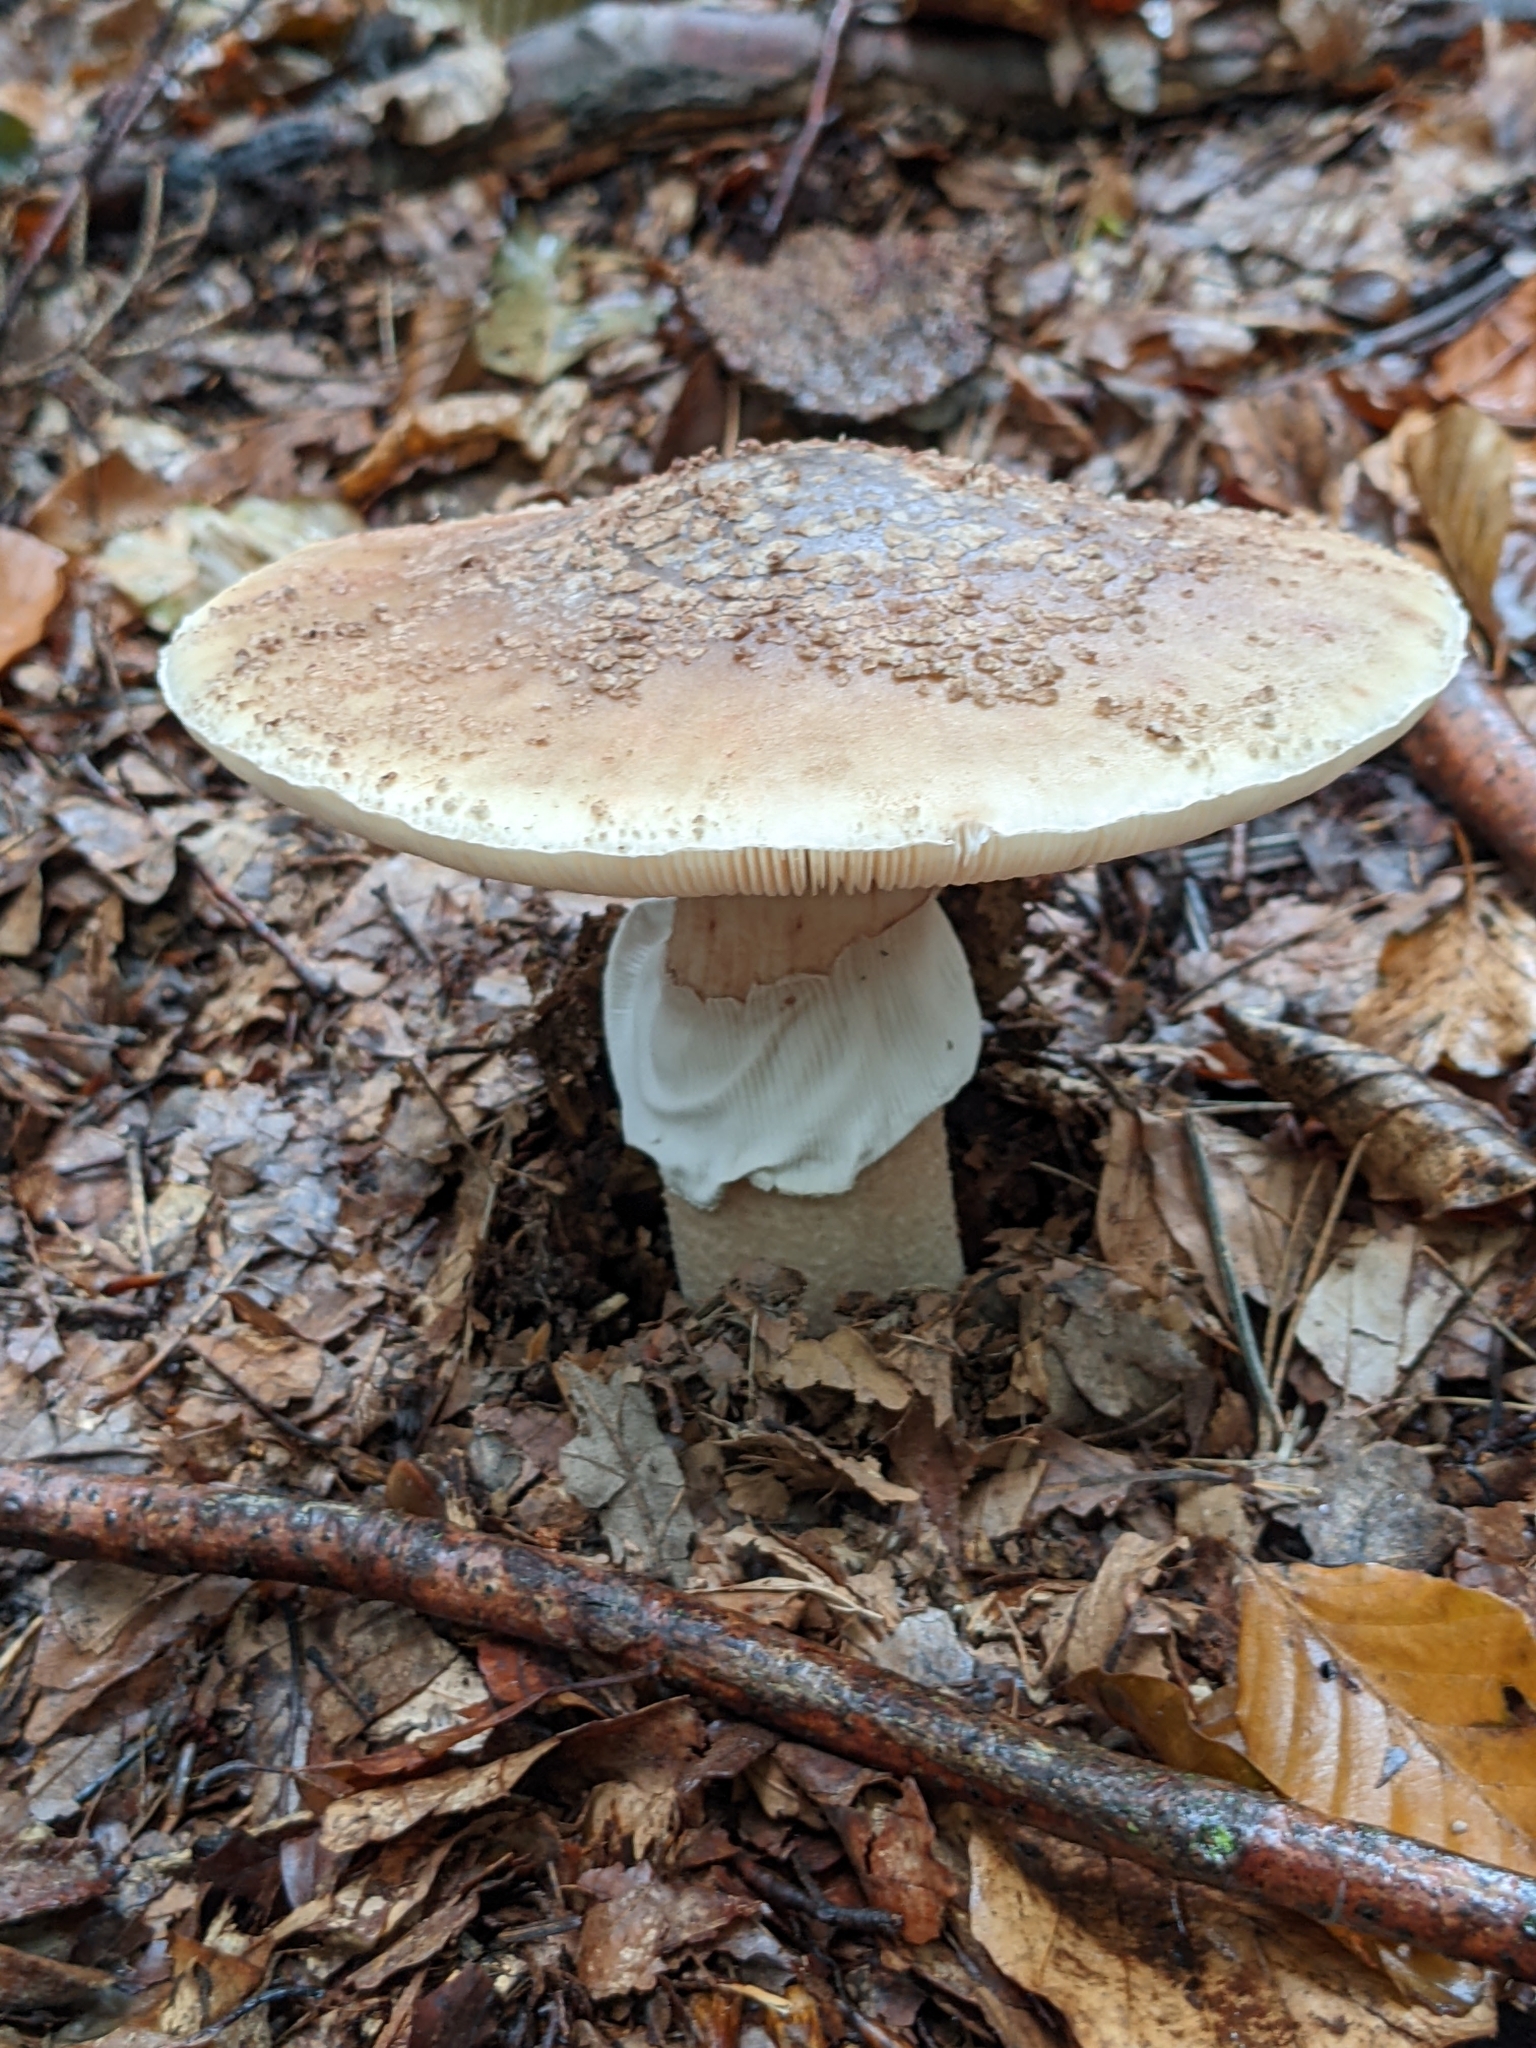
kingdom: Fungi
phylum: Basidiomycota
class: Agaricomycetes
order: Agaricales
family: Amanitaceae
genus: Amanita
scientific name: Amanita rubescens
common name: Blusher
